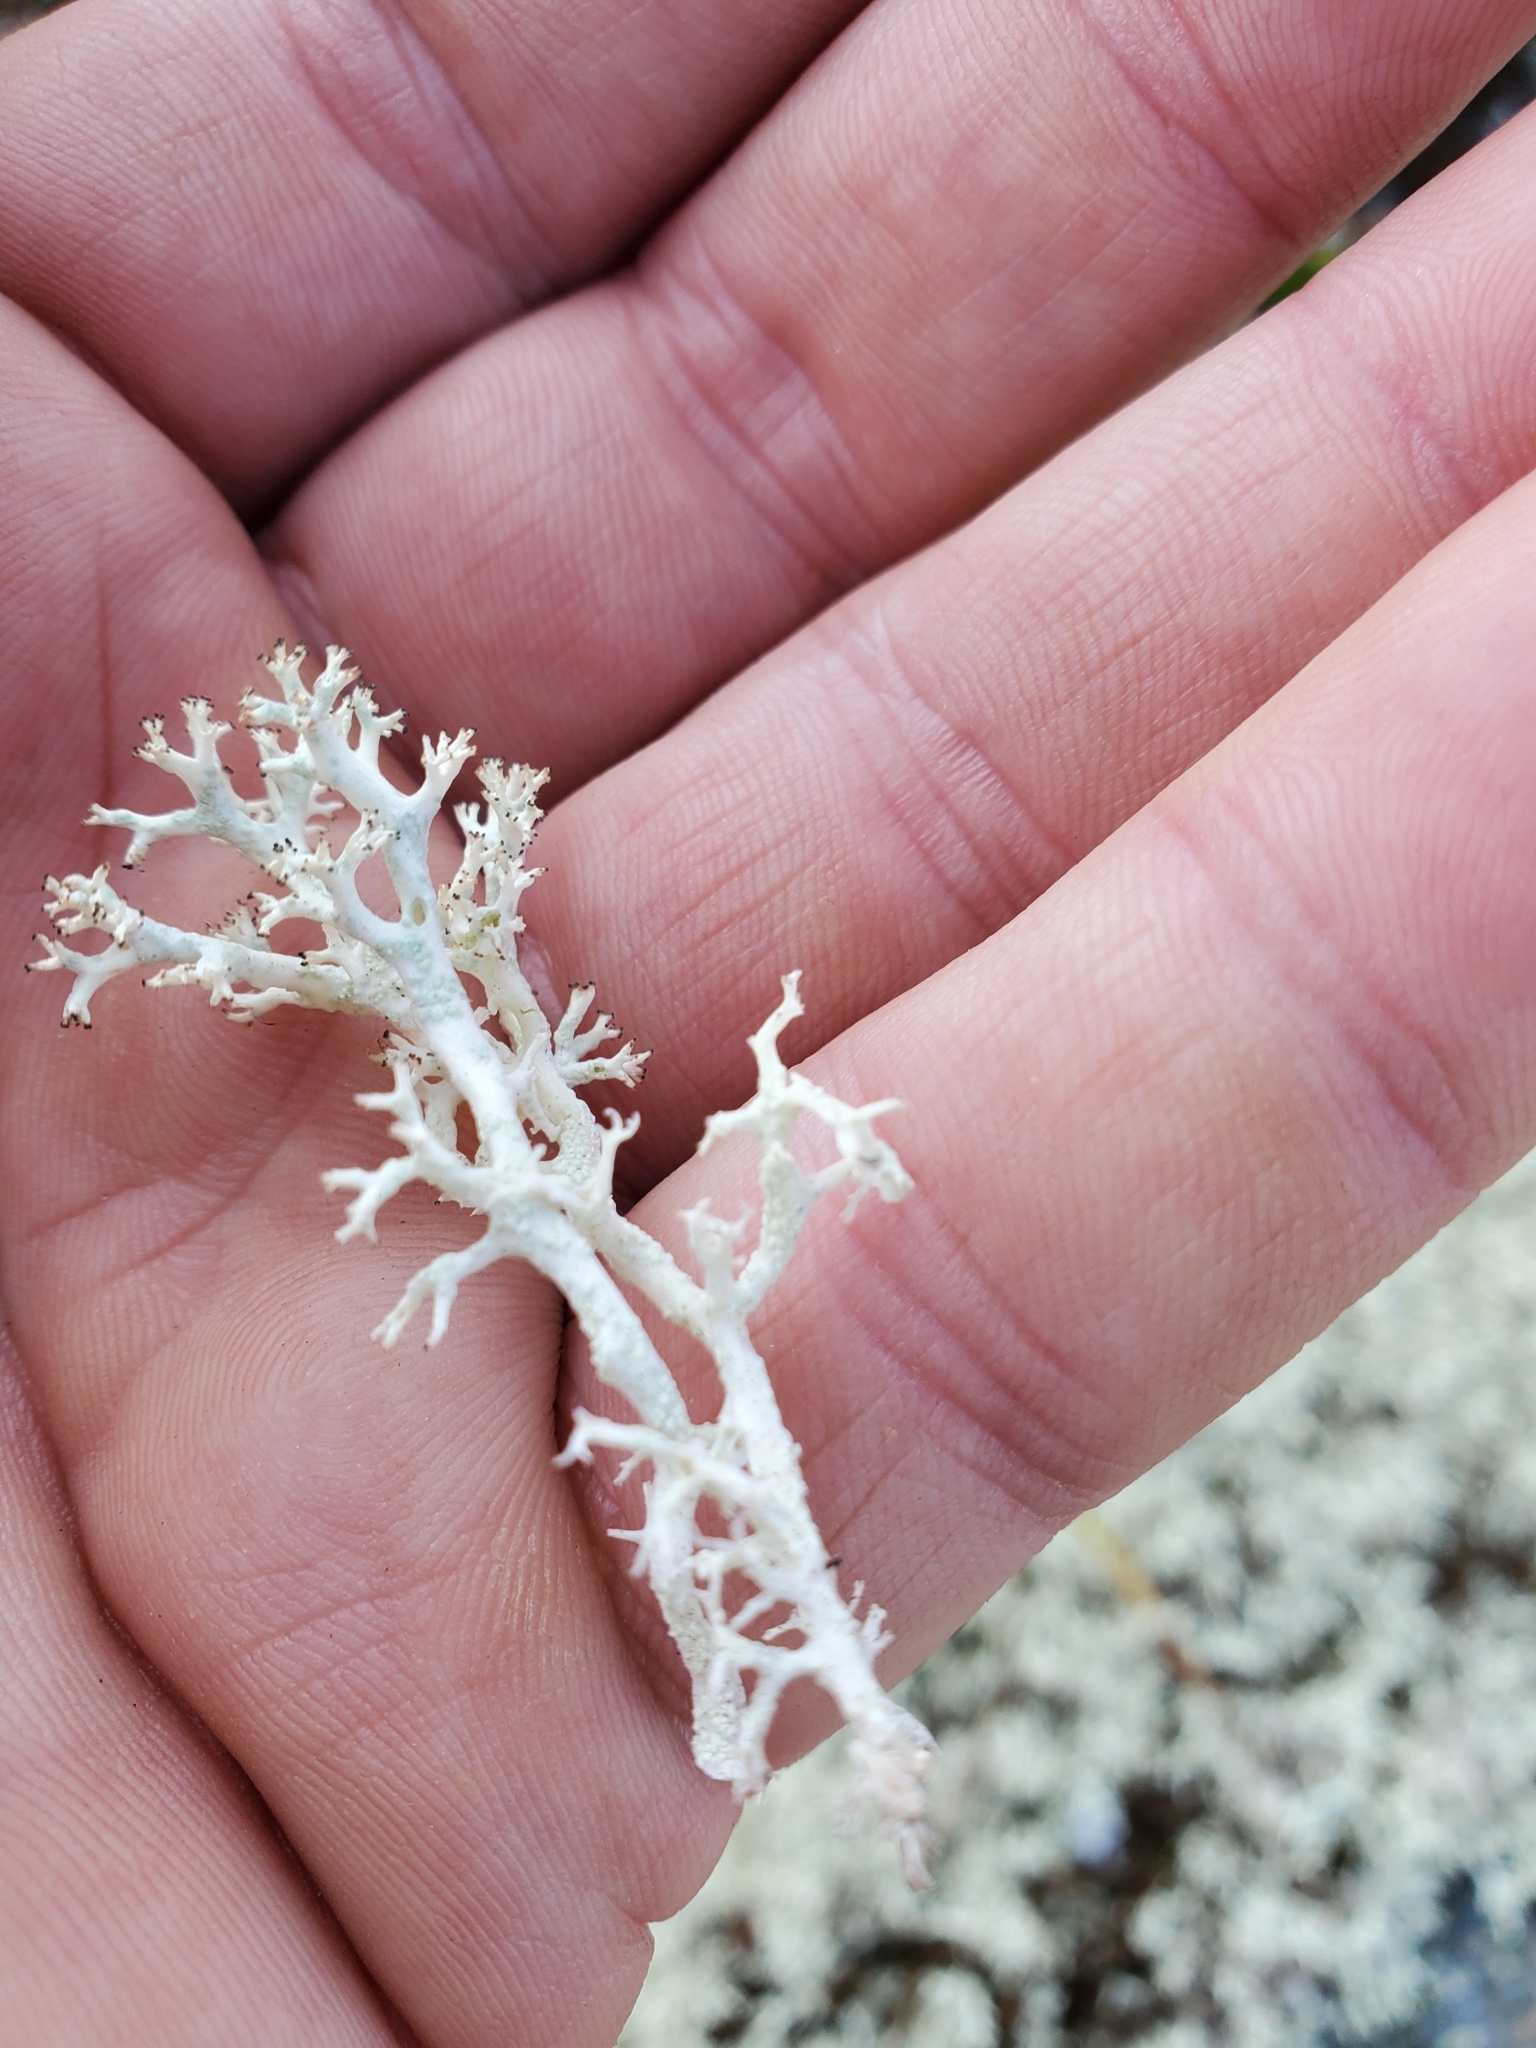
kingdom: Fungi
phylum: Ascomycota
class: Lecanoromycetes
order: Lecanorales
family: Cladoniaceae
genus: Cladonia
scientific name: Cladonia arbuscula
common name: Reindeer lichen
